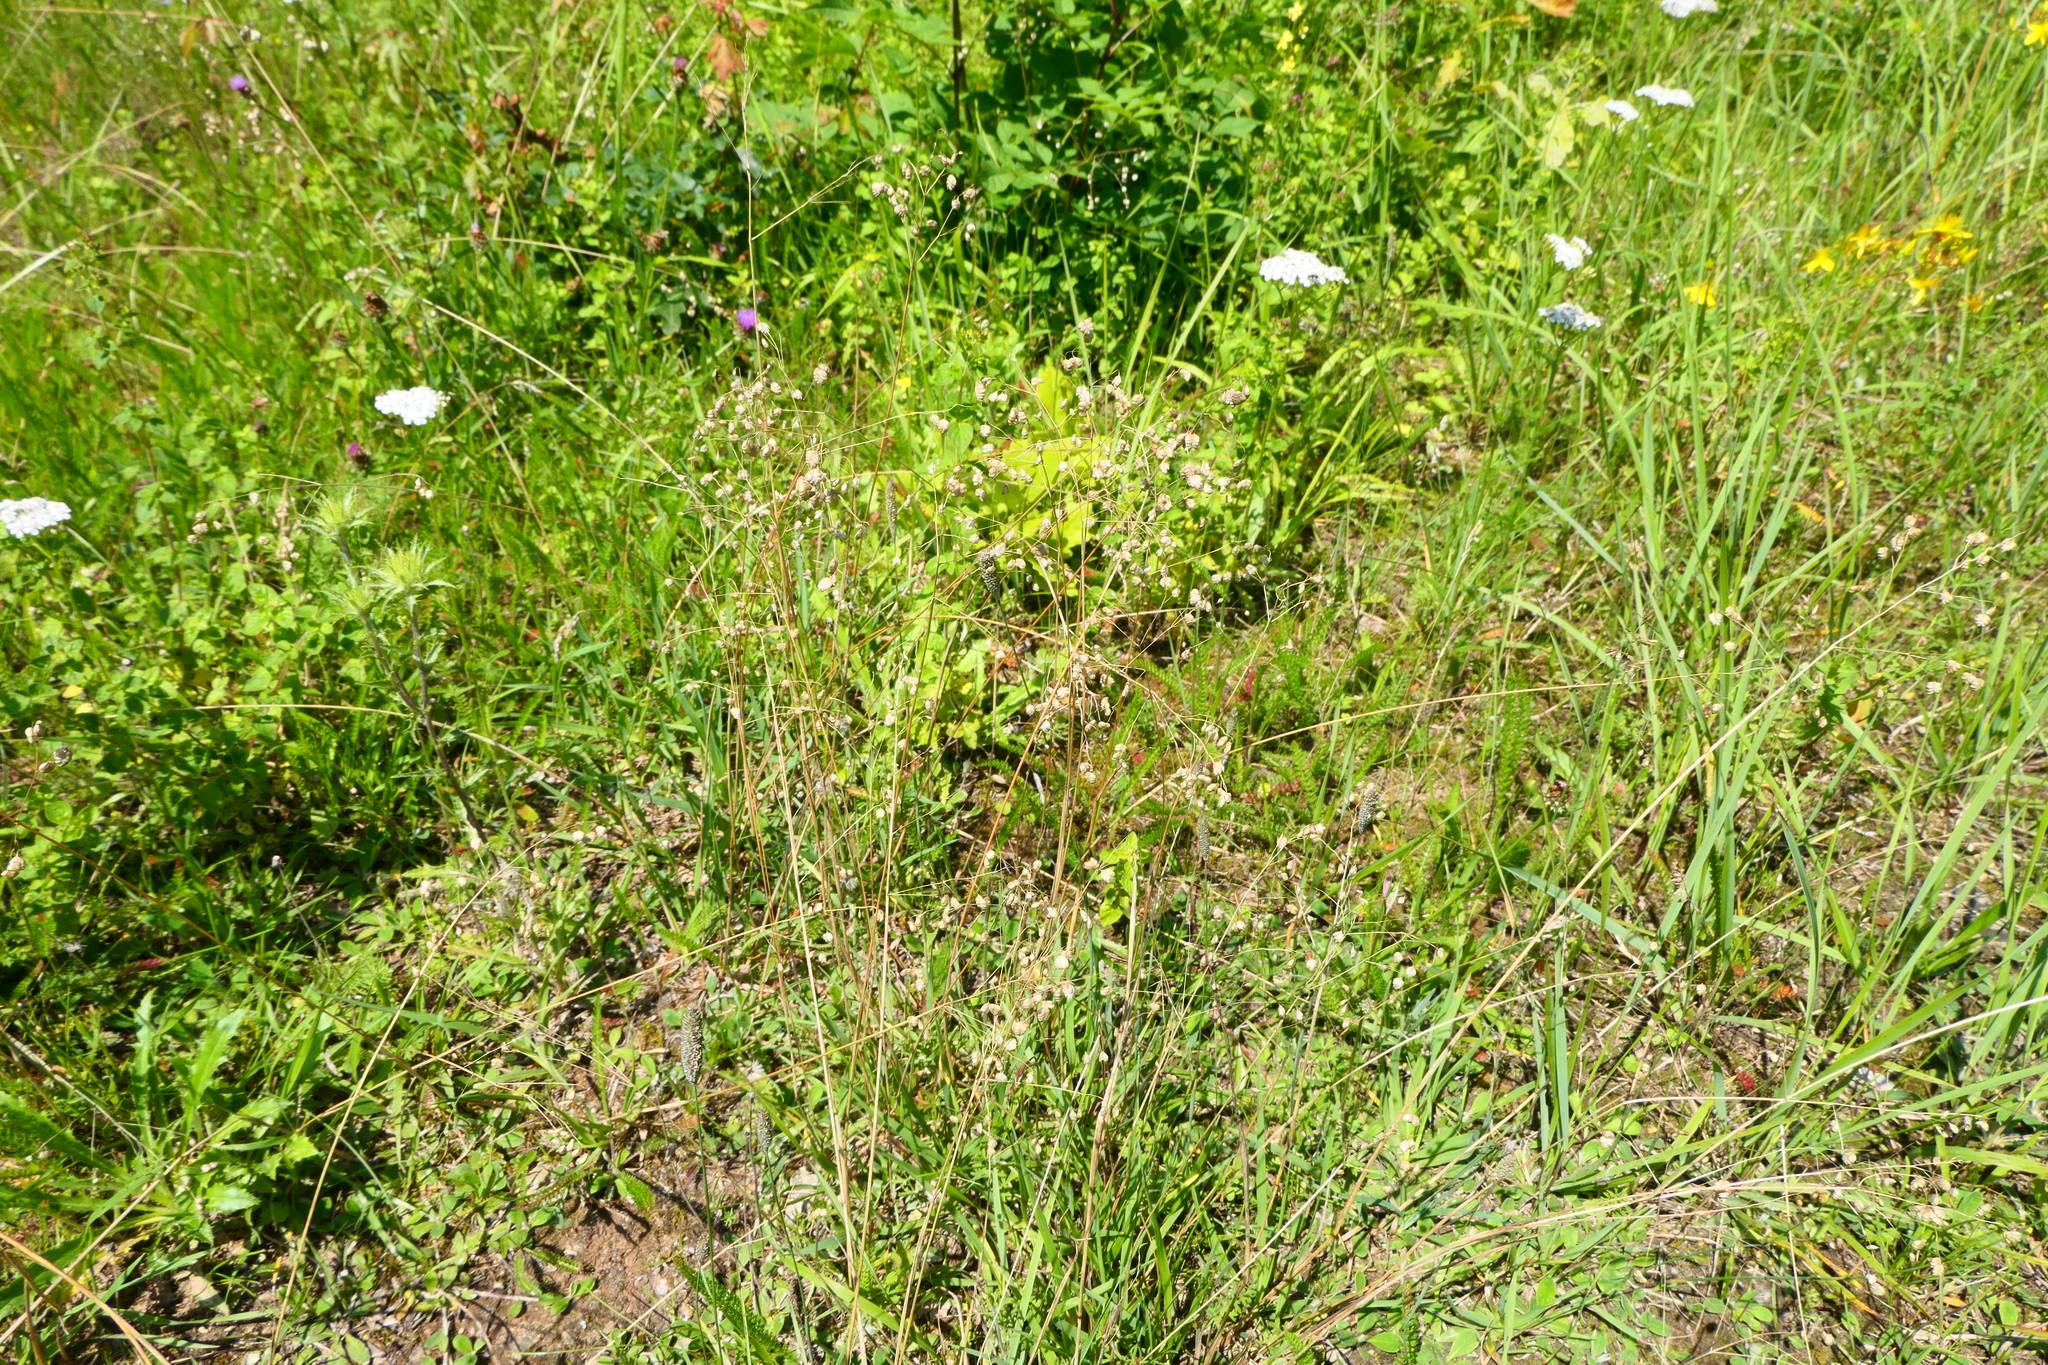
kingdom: Plantae
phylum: Tracheophyta
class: Liliopsida
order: Poales
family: Poaceae
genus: Briza
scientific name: Briza media
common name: Quaking grass
